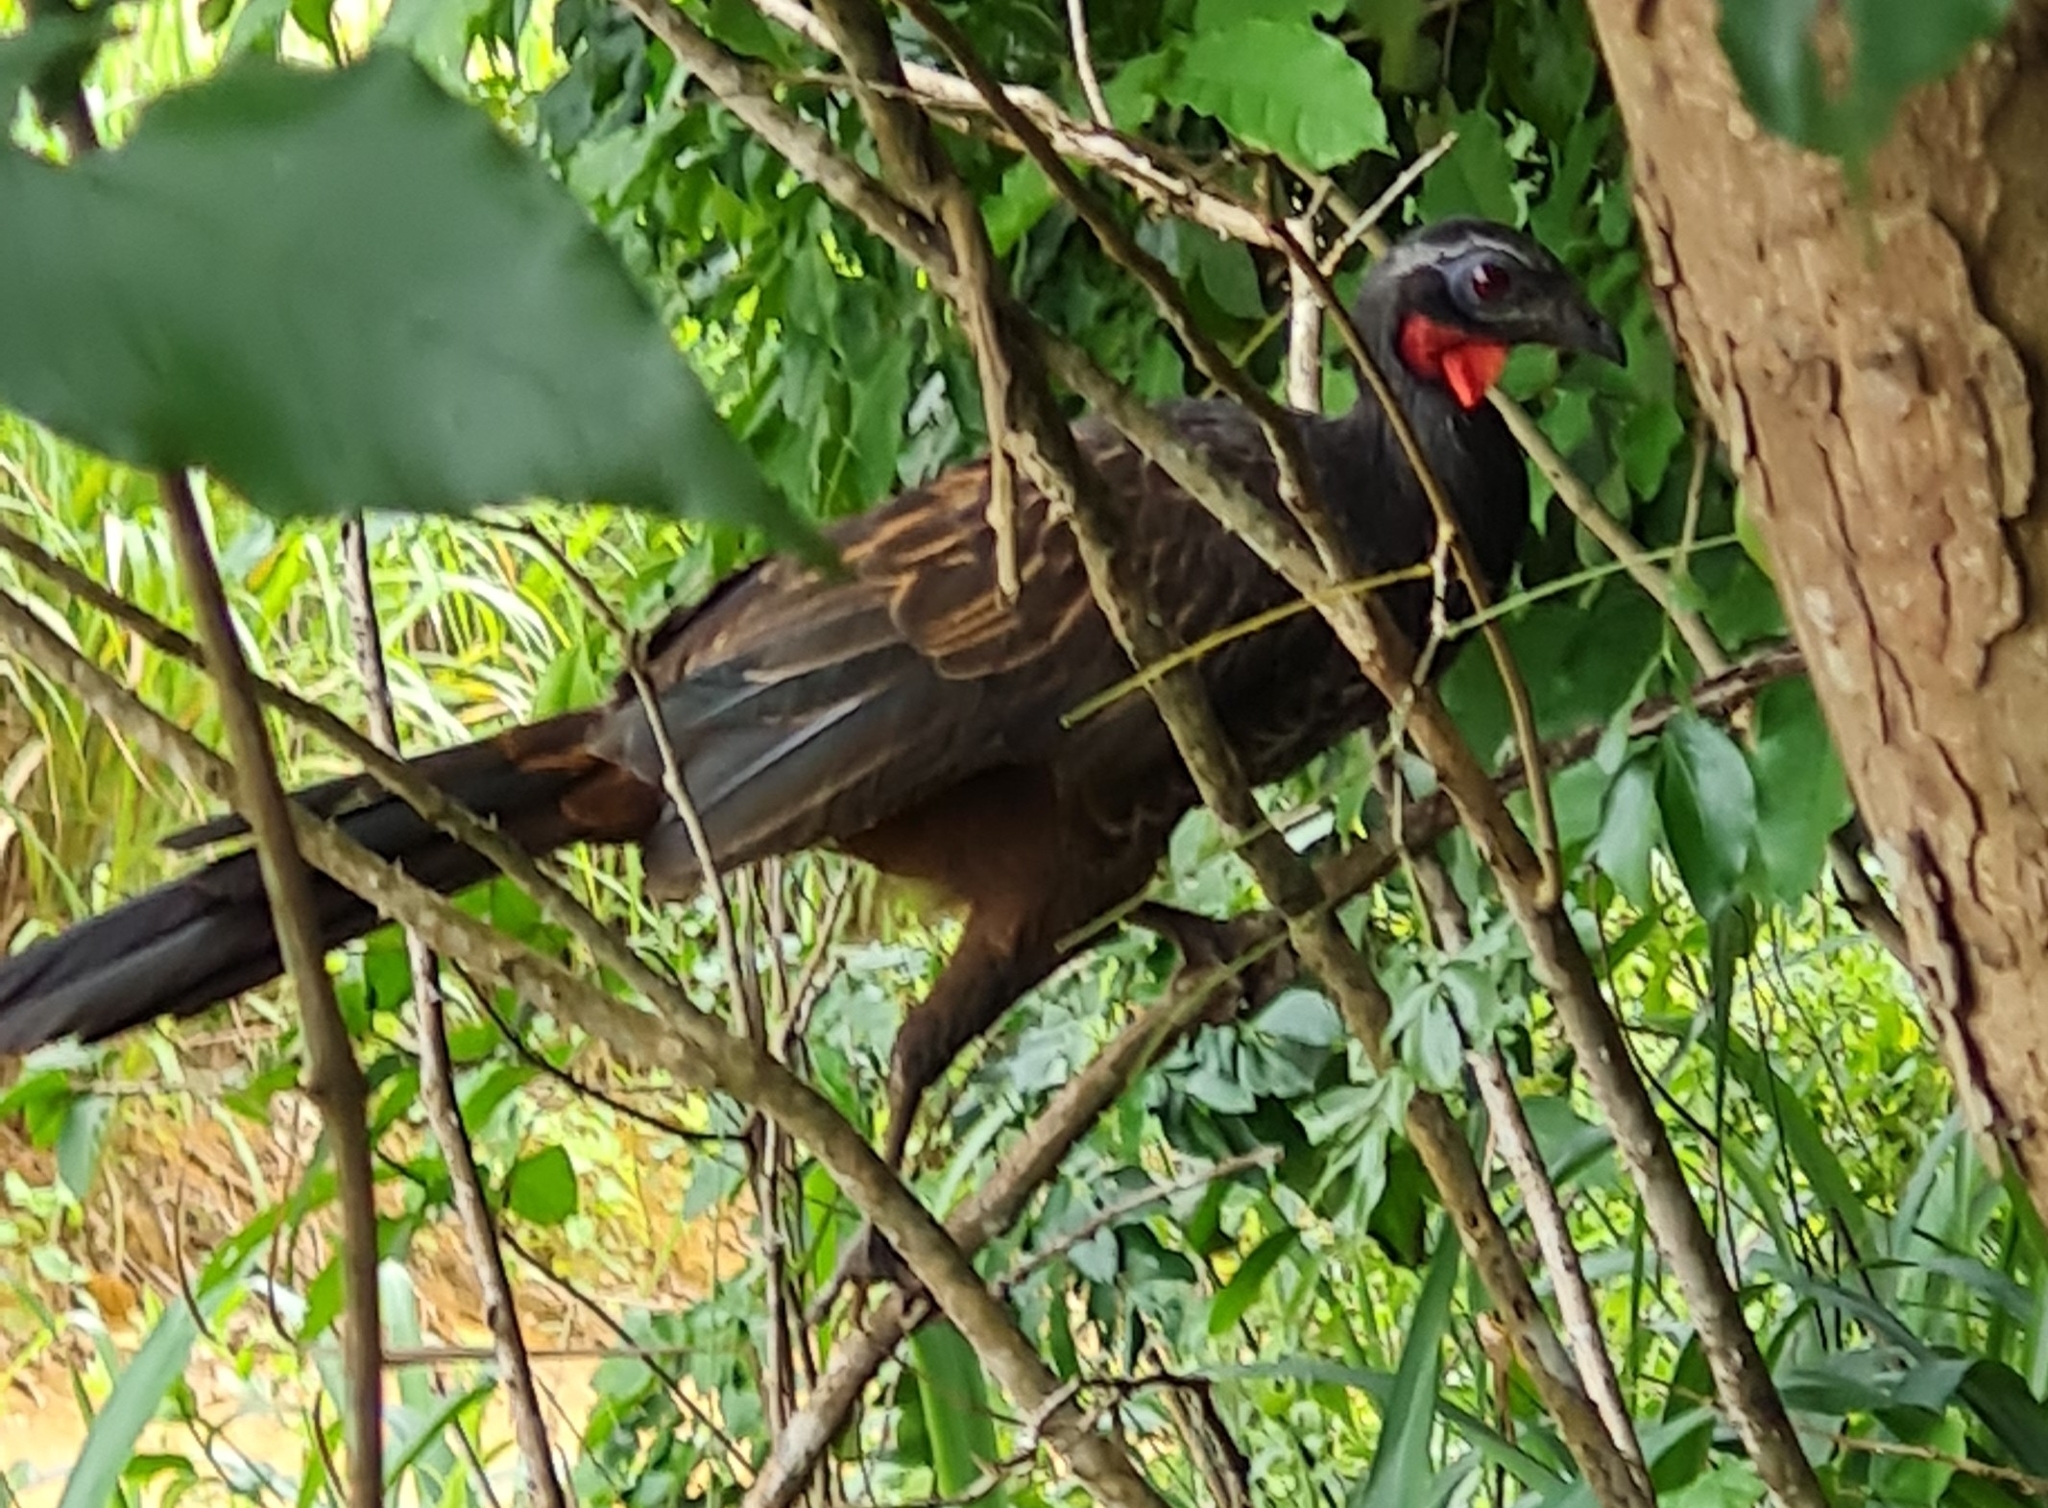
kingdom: Animalia
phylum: Chordata
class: Aves
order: Galliformes
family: Cracidae
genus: Penelope
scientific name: Penelope superciliaris
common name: Rusty-margined guan
